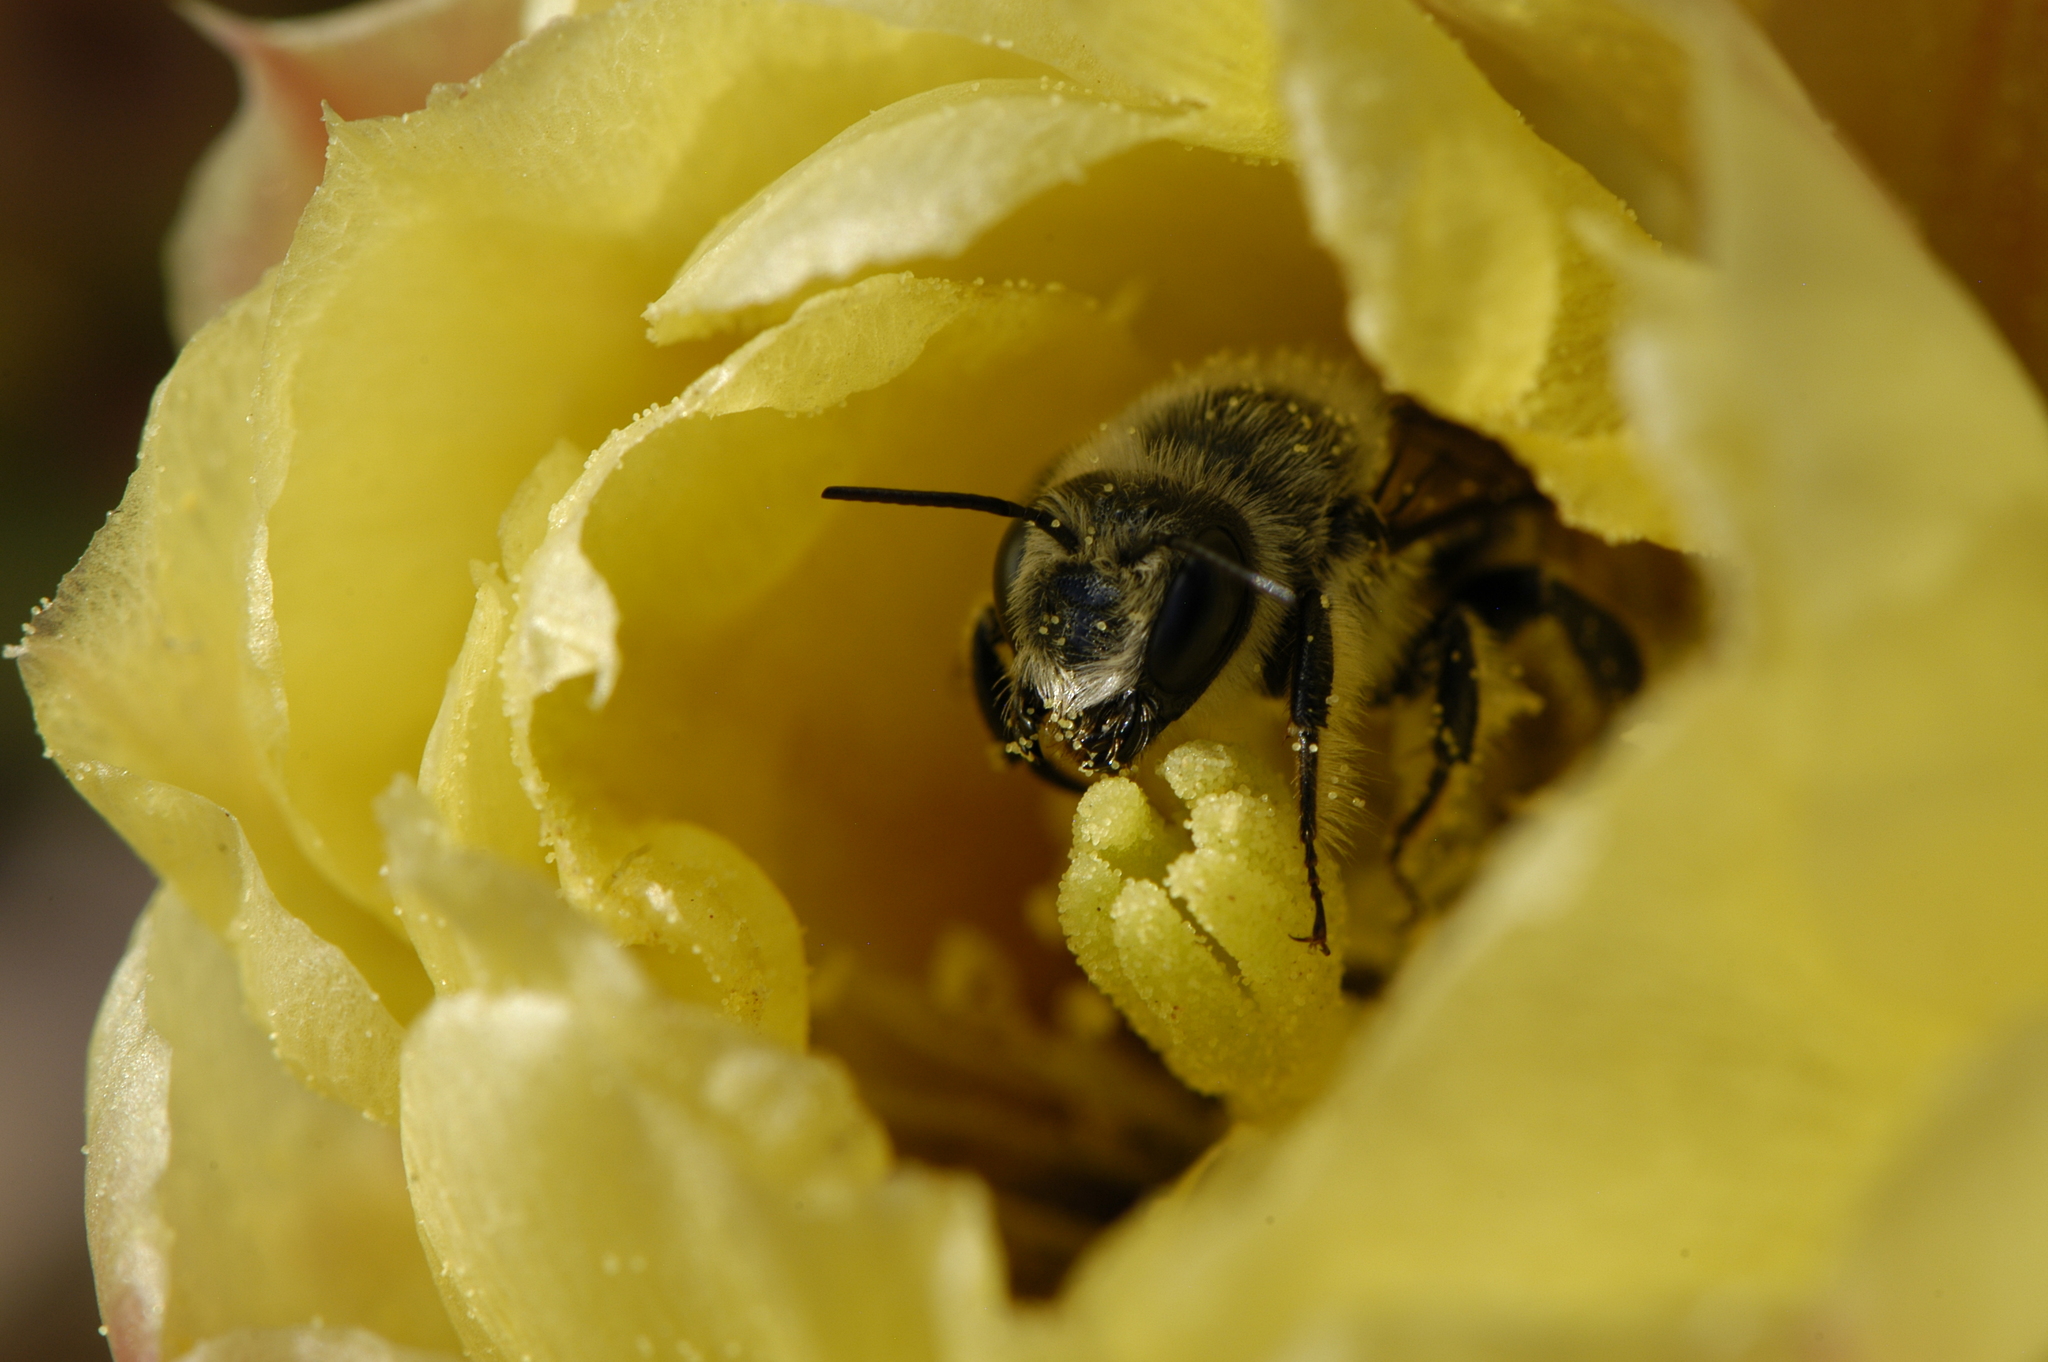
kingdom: Animalia
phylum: Arthropoda
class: Insecta
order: Hymenoptera
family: Megachilidae
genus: Lithurgopsis
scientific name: Lithurgopsis apicalis
